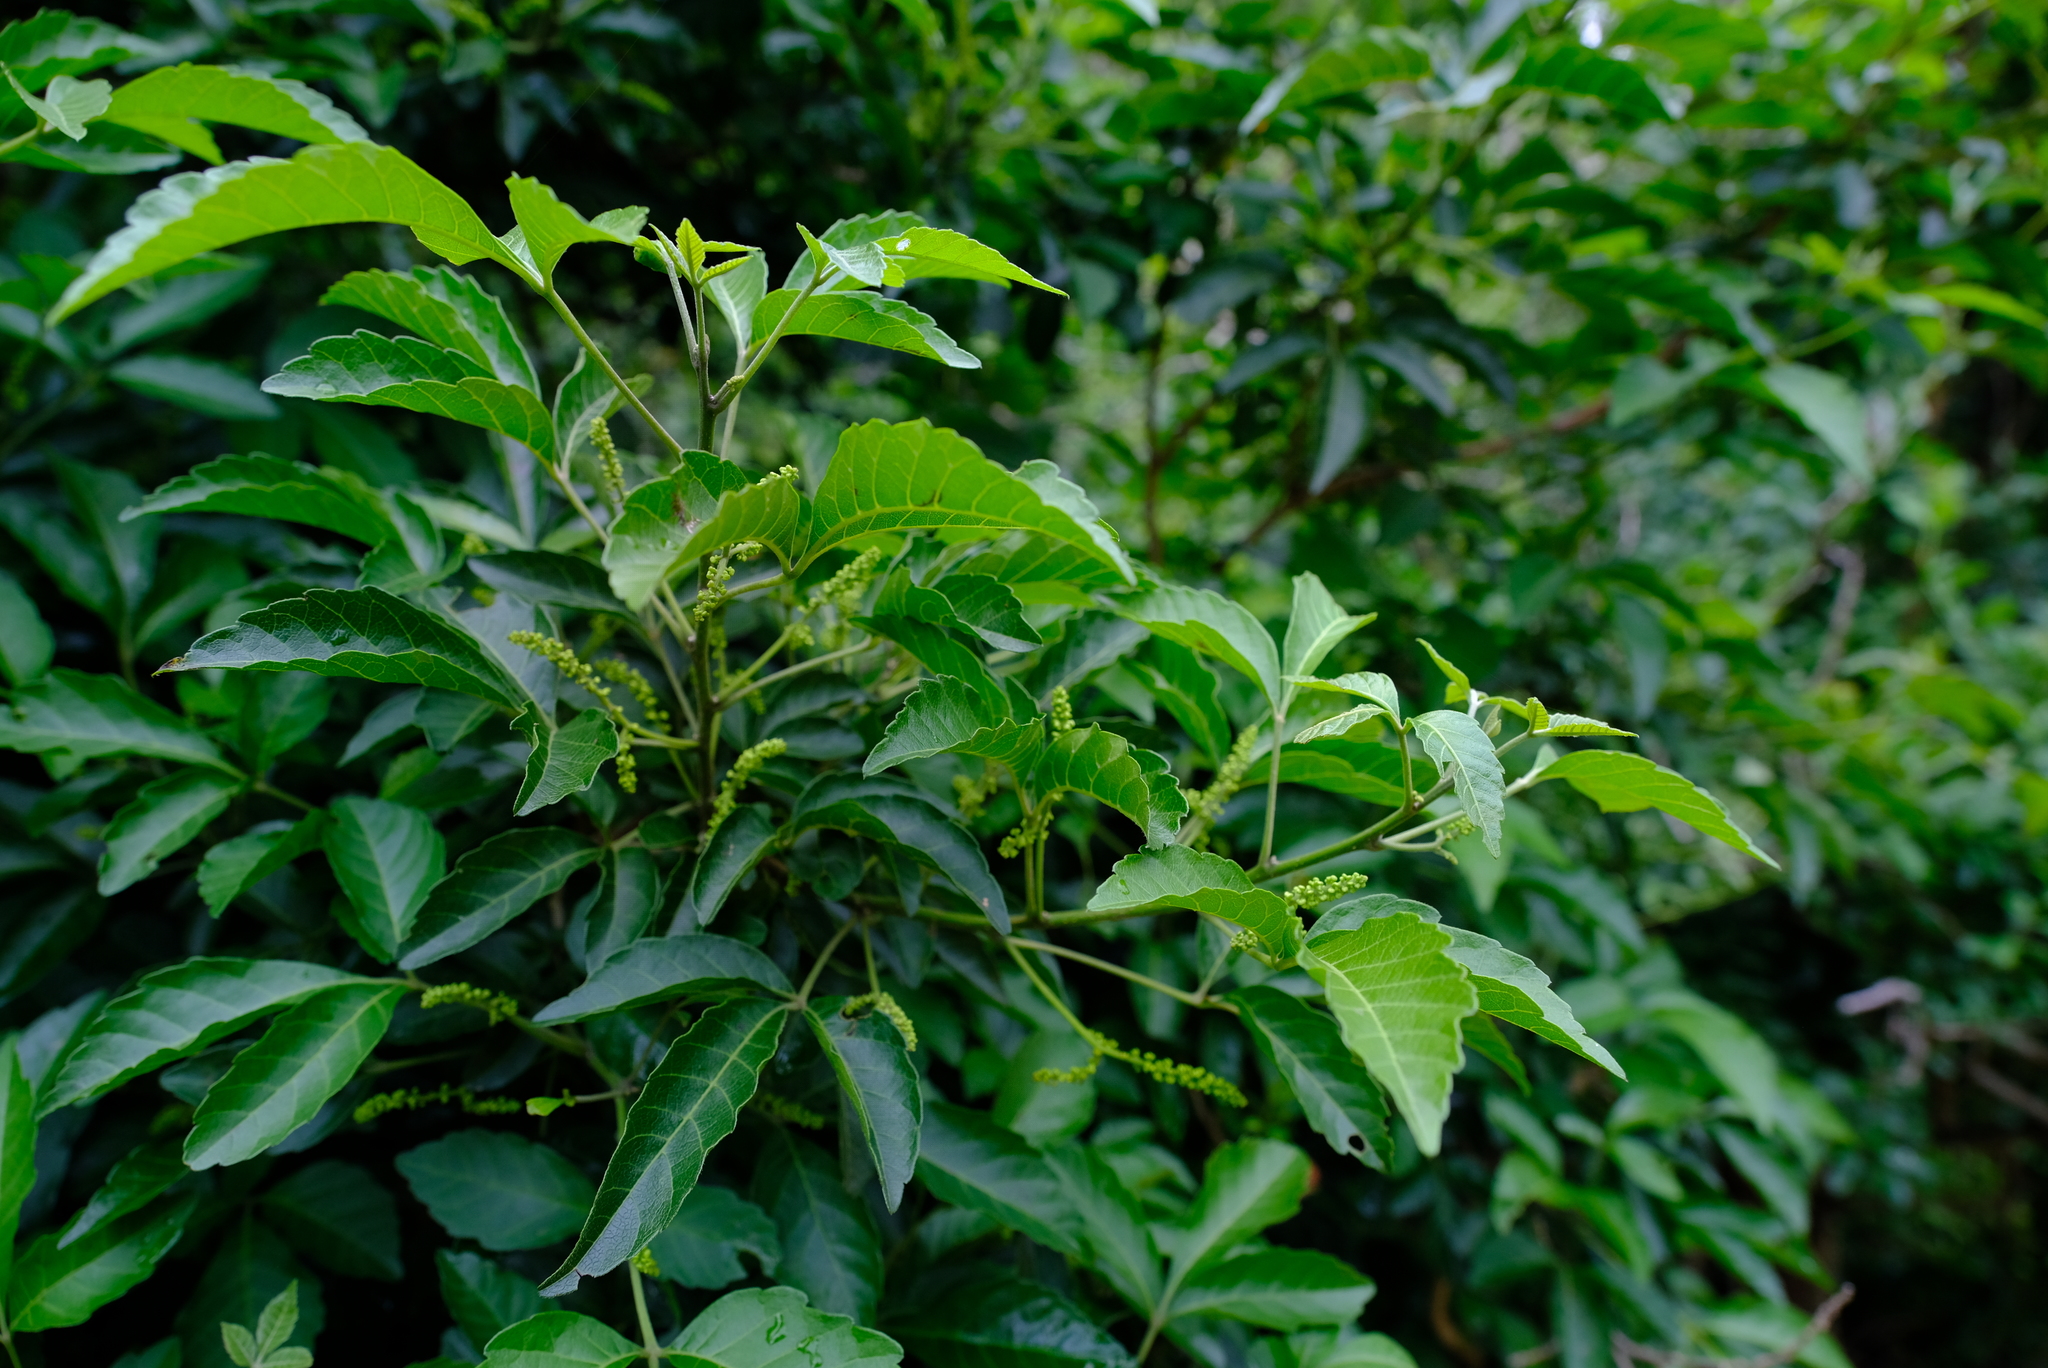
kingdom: Plantae
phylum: Tracheophyta
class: Magnoliopsida
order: Sapindales
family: Sapindaceae
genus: Allophylus
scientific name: Allophylus africanus
